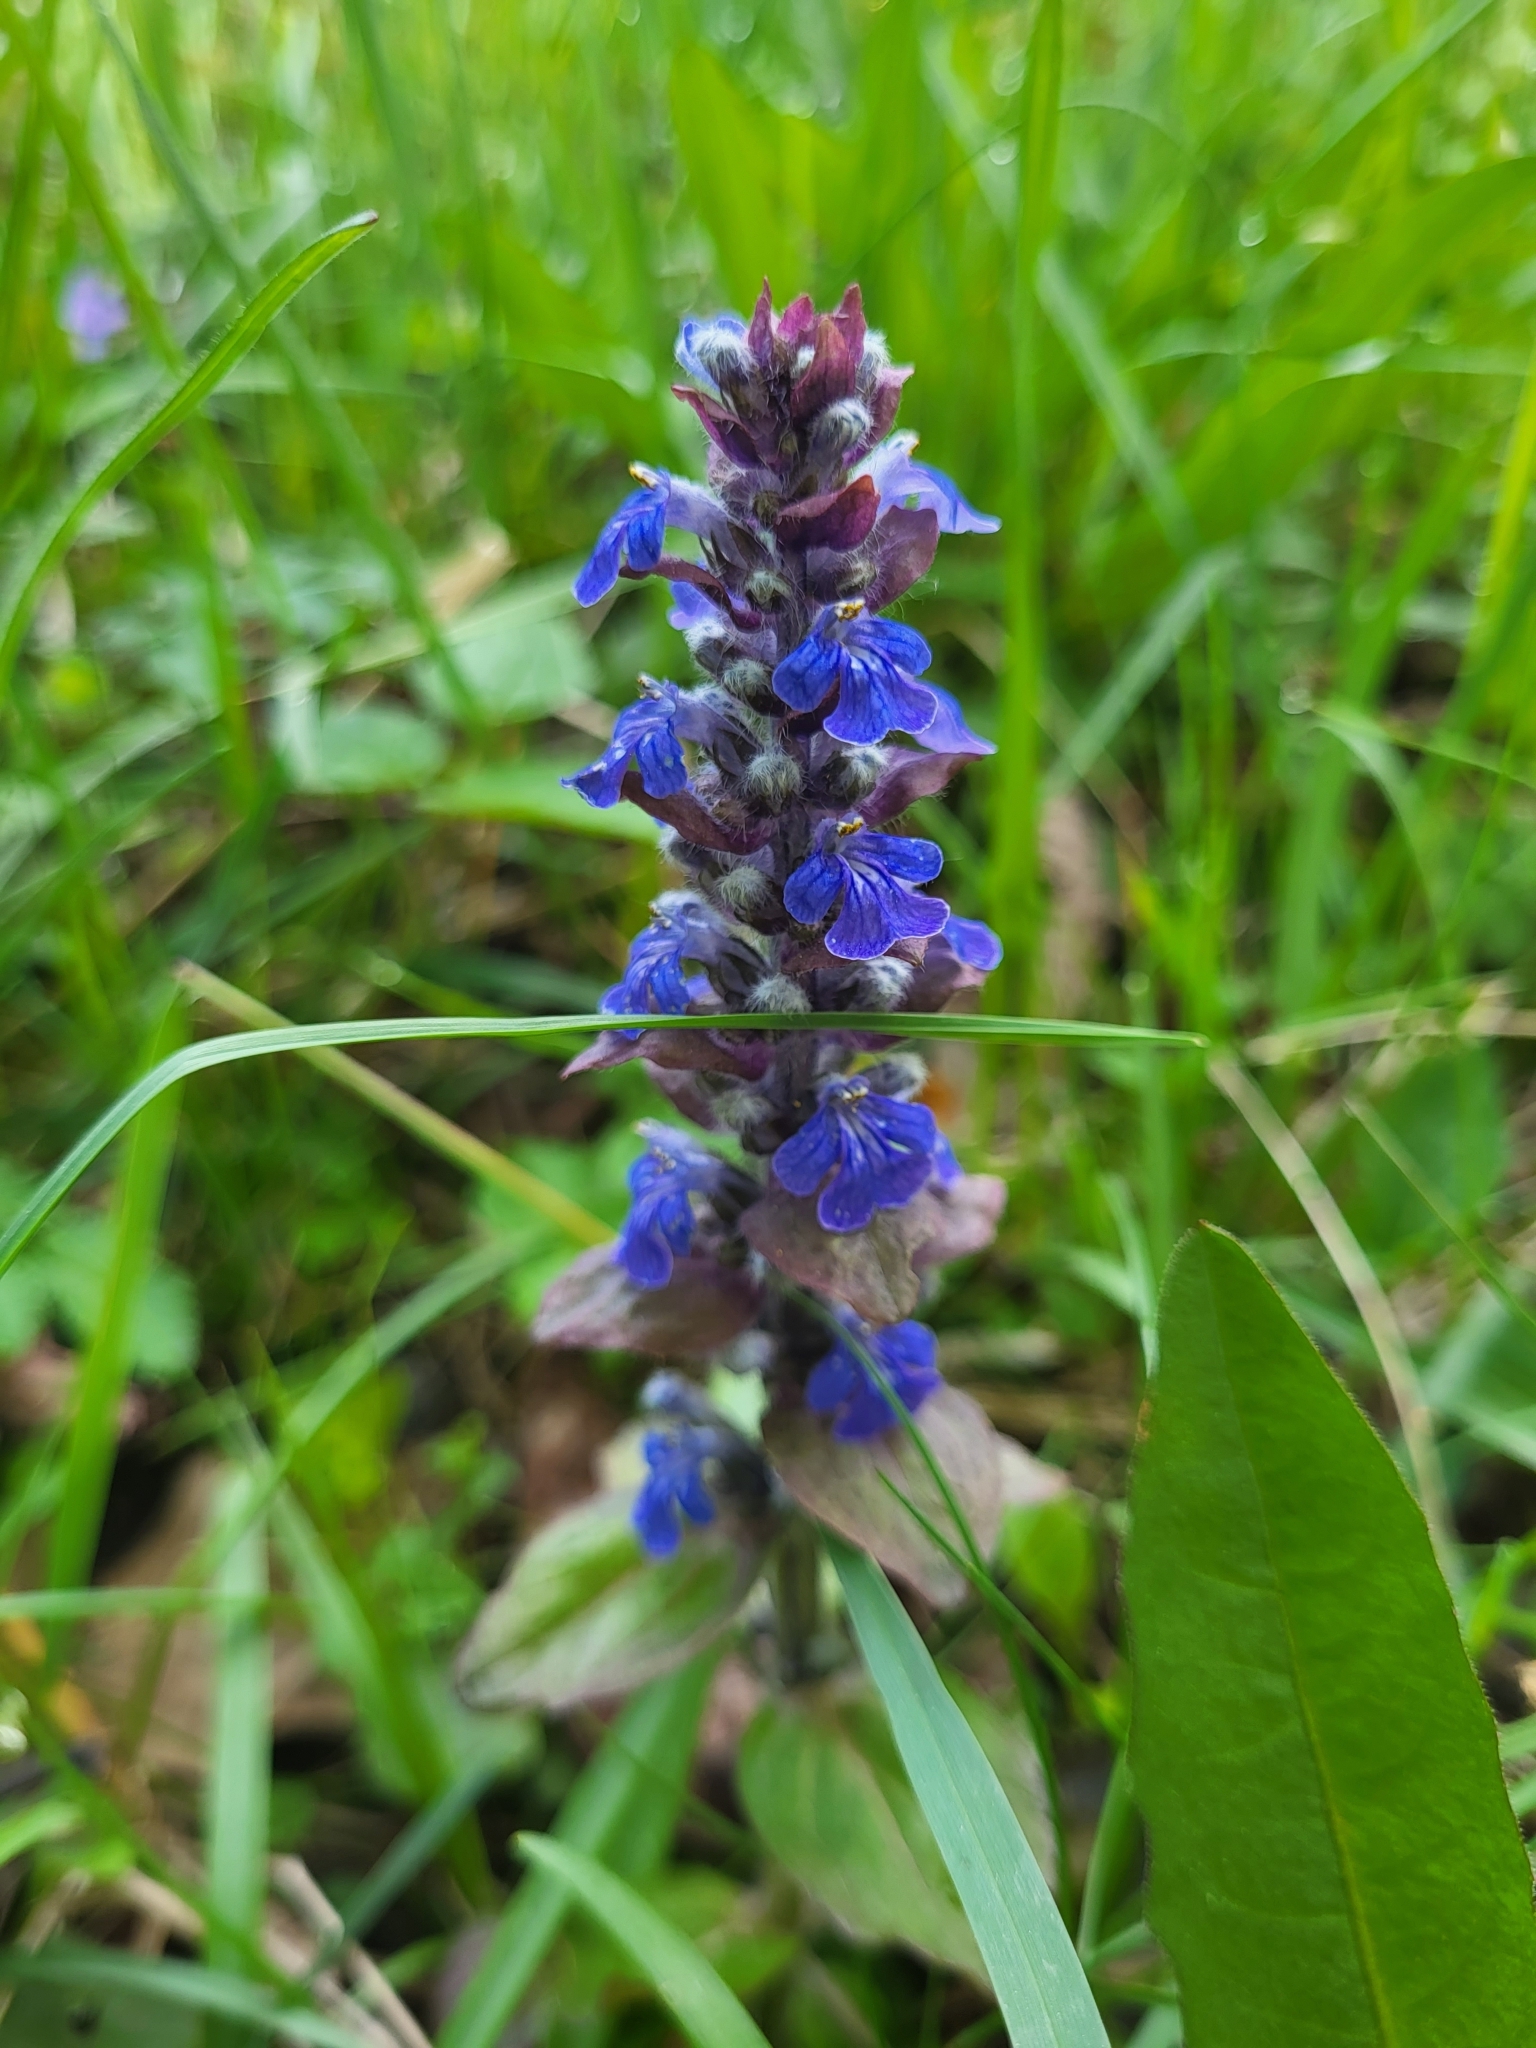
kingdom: Plantae
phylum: Tracheophyta
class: Magnoliopsida
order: Lamiales
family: Lamiaceae
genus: Ajuga
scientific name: Ajuga reptans
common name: Bugle
